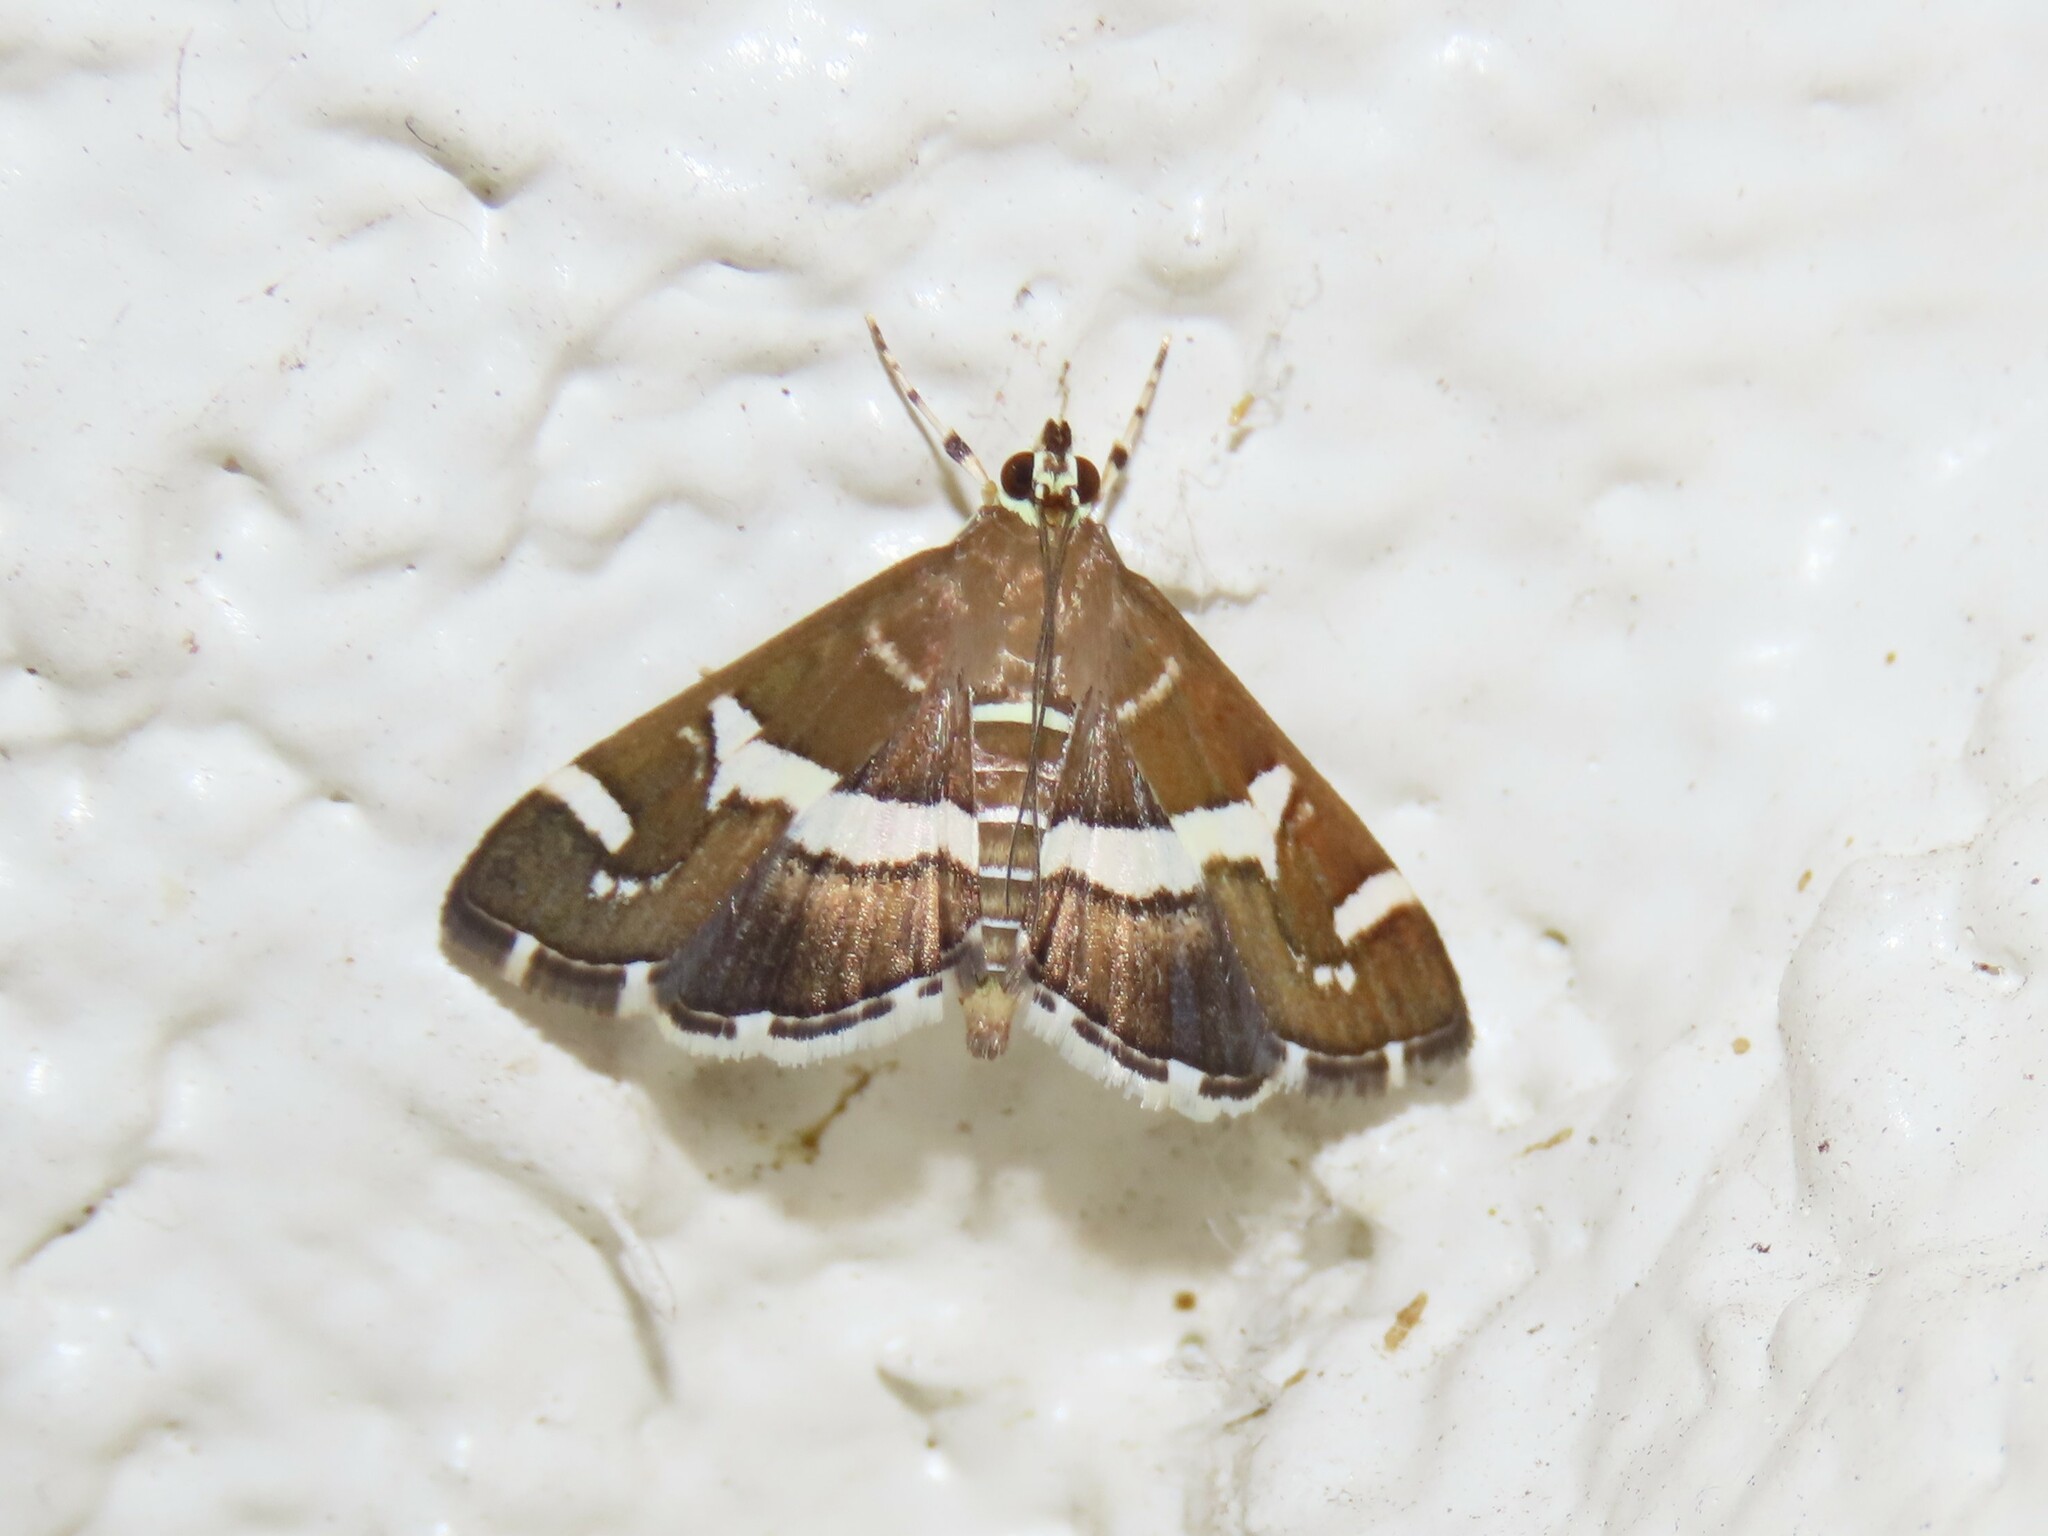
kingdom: Animalia
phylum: Arthropoda
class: Insecta
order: Lepidoptera
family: Crambidae
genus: Spoladea
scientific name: Spoladea recurvalis
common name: Beet webworm moth
